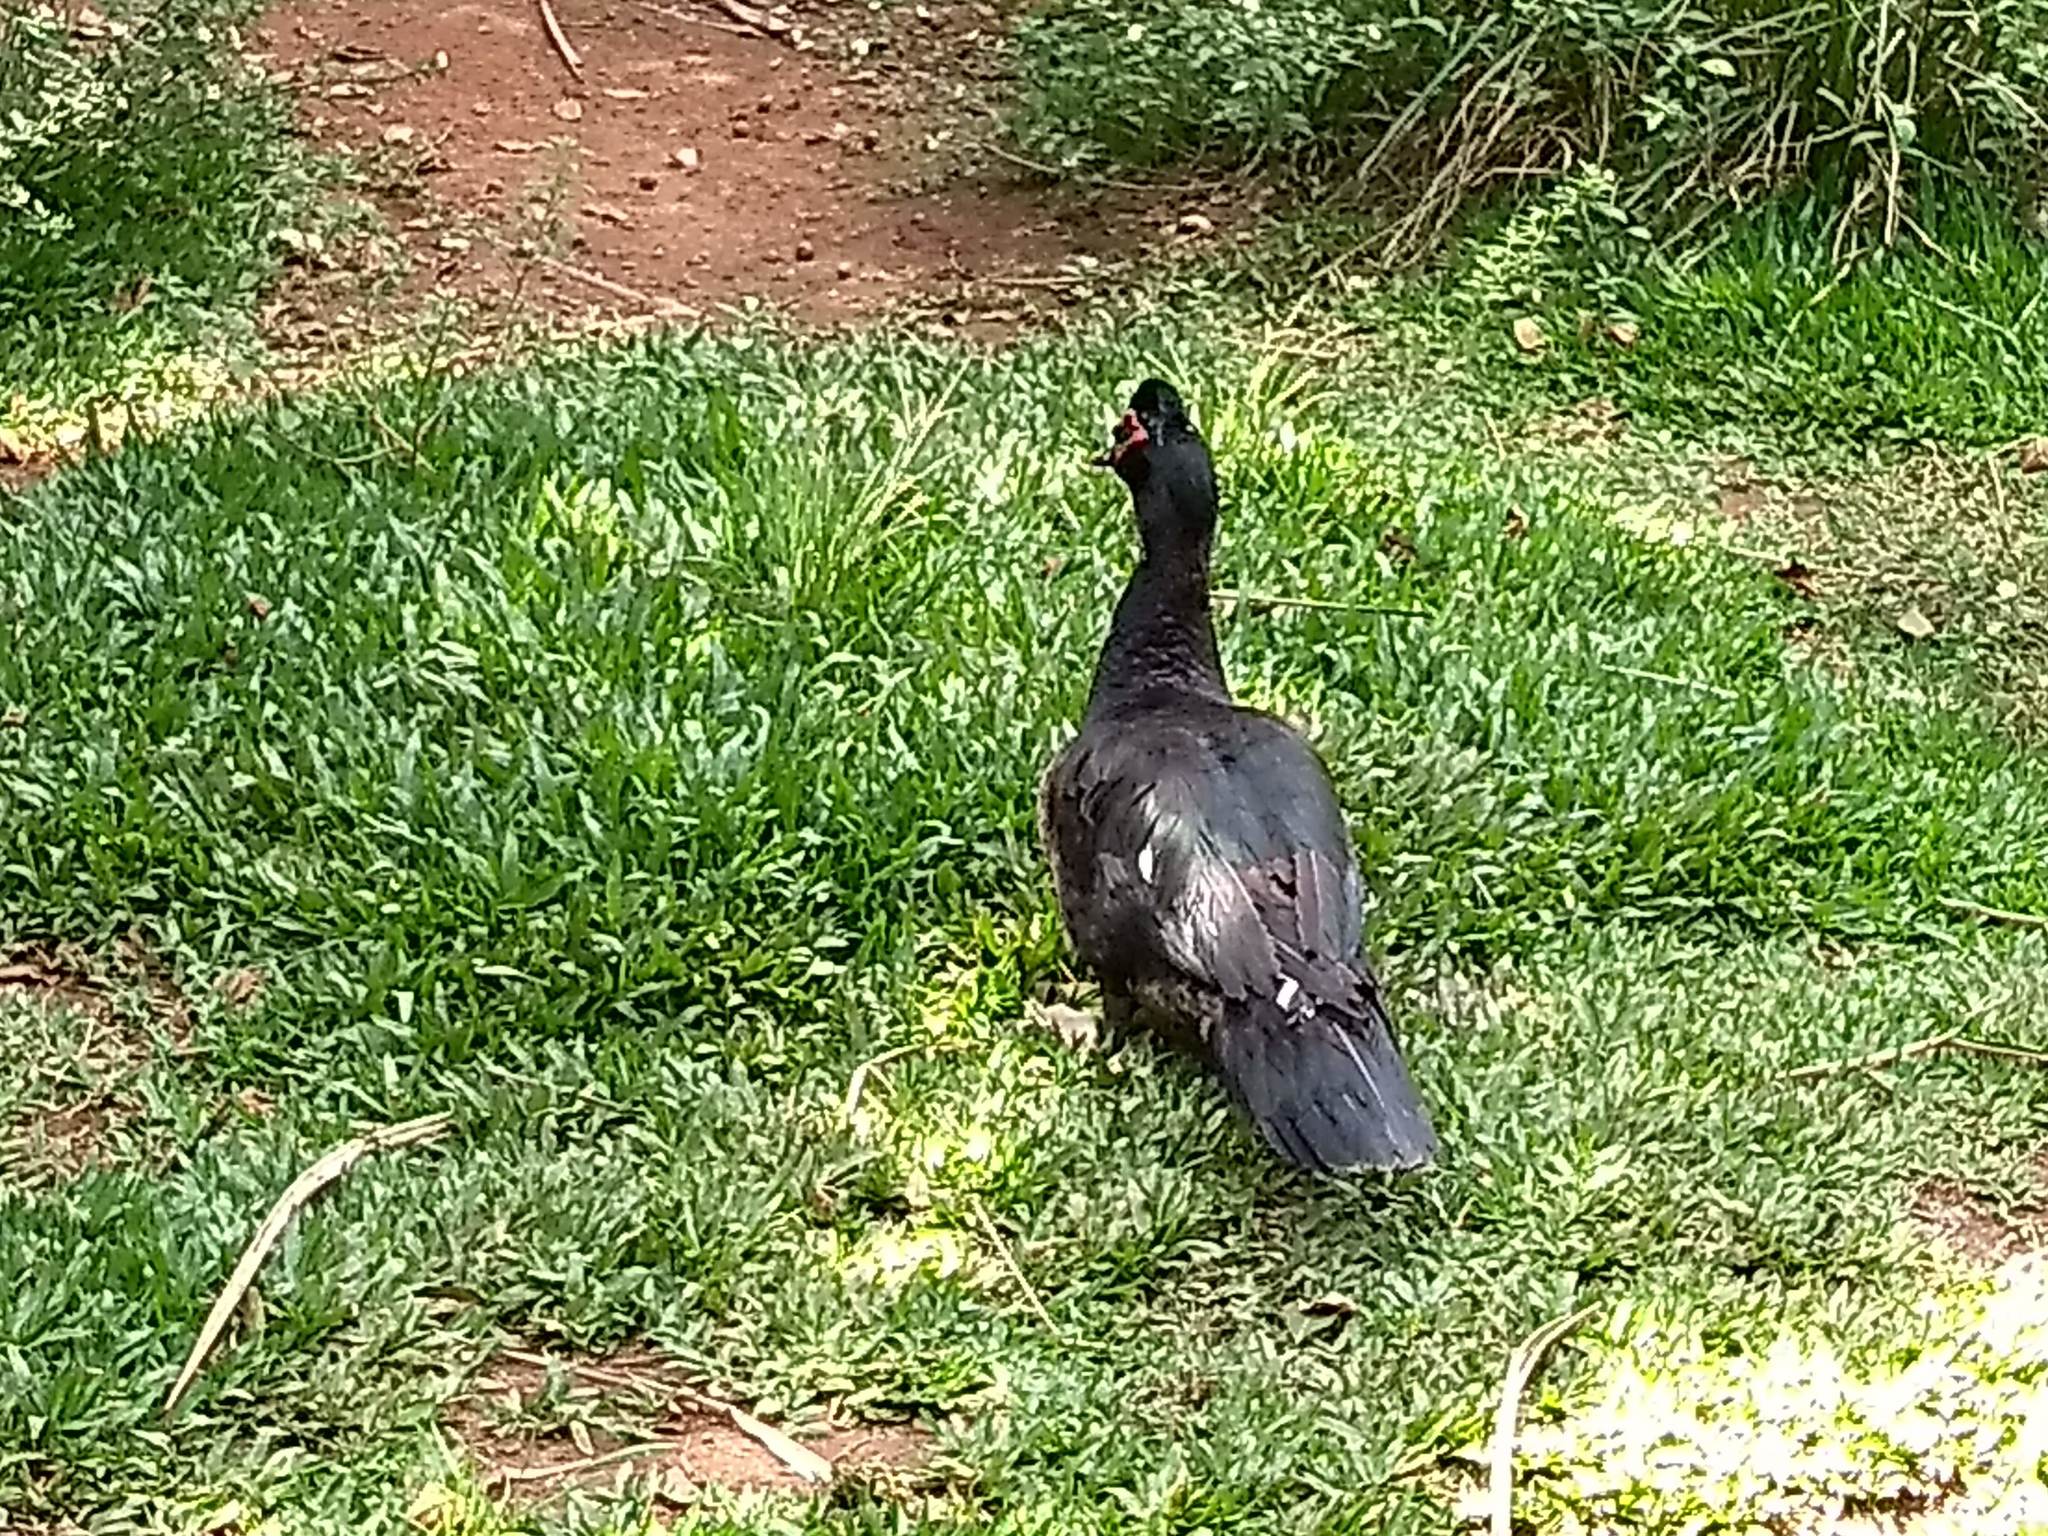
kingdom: Animalia
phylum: Chordata
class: Aves
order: Anseriformes
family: Anatidae
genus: Cairina
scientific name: Cairina moschata
